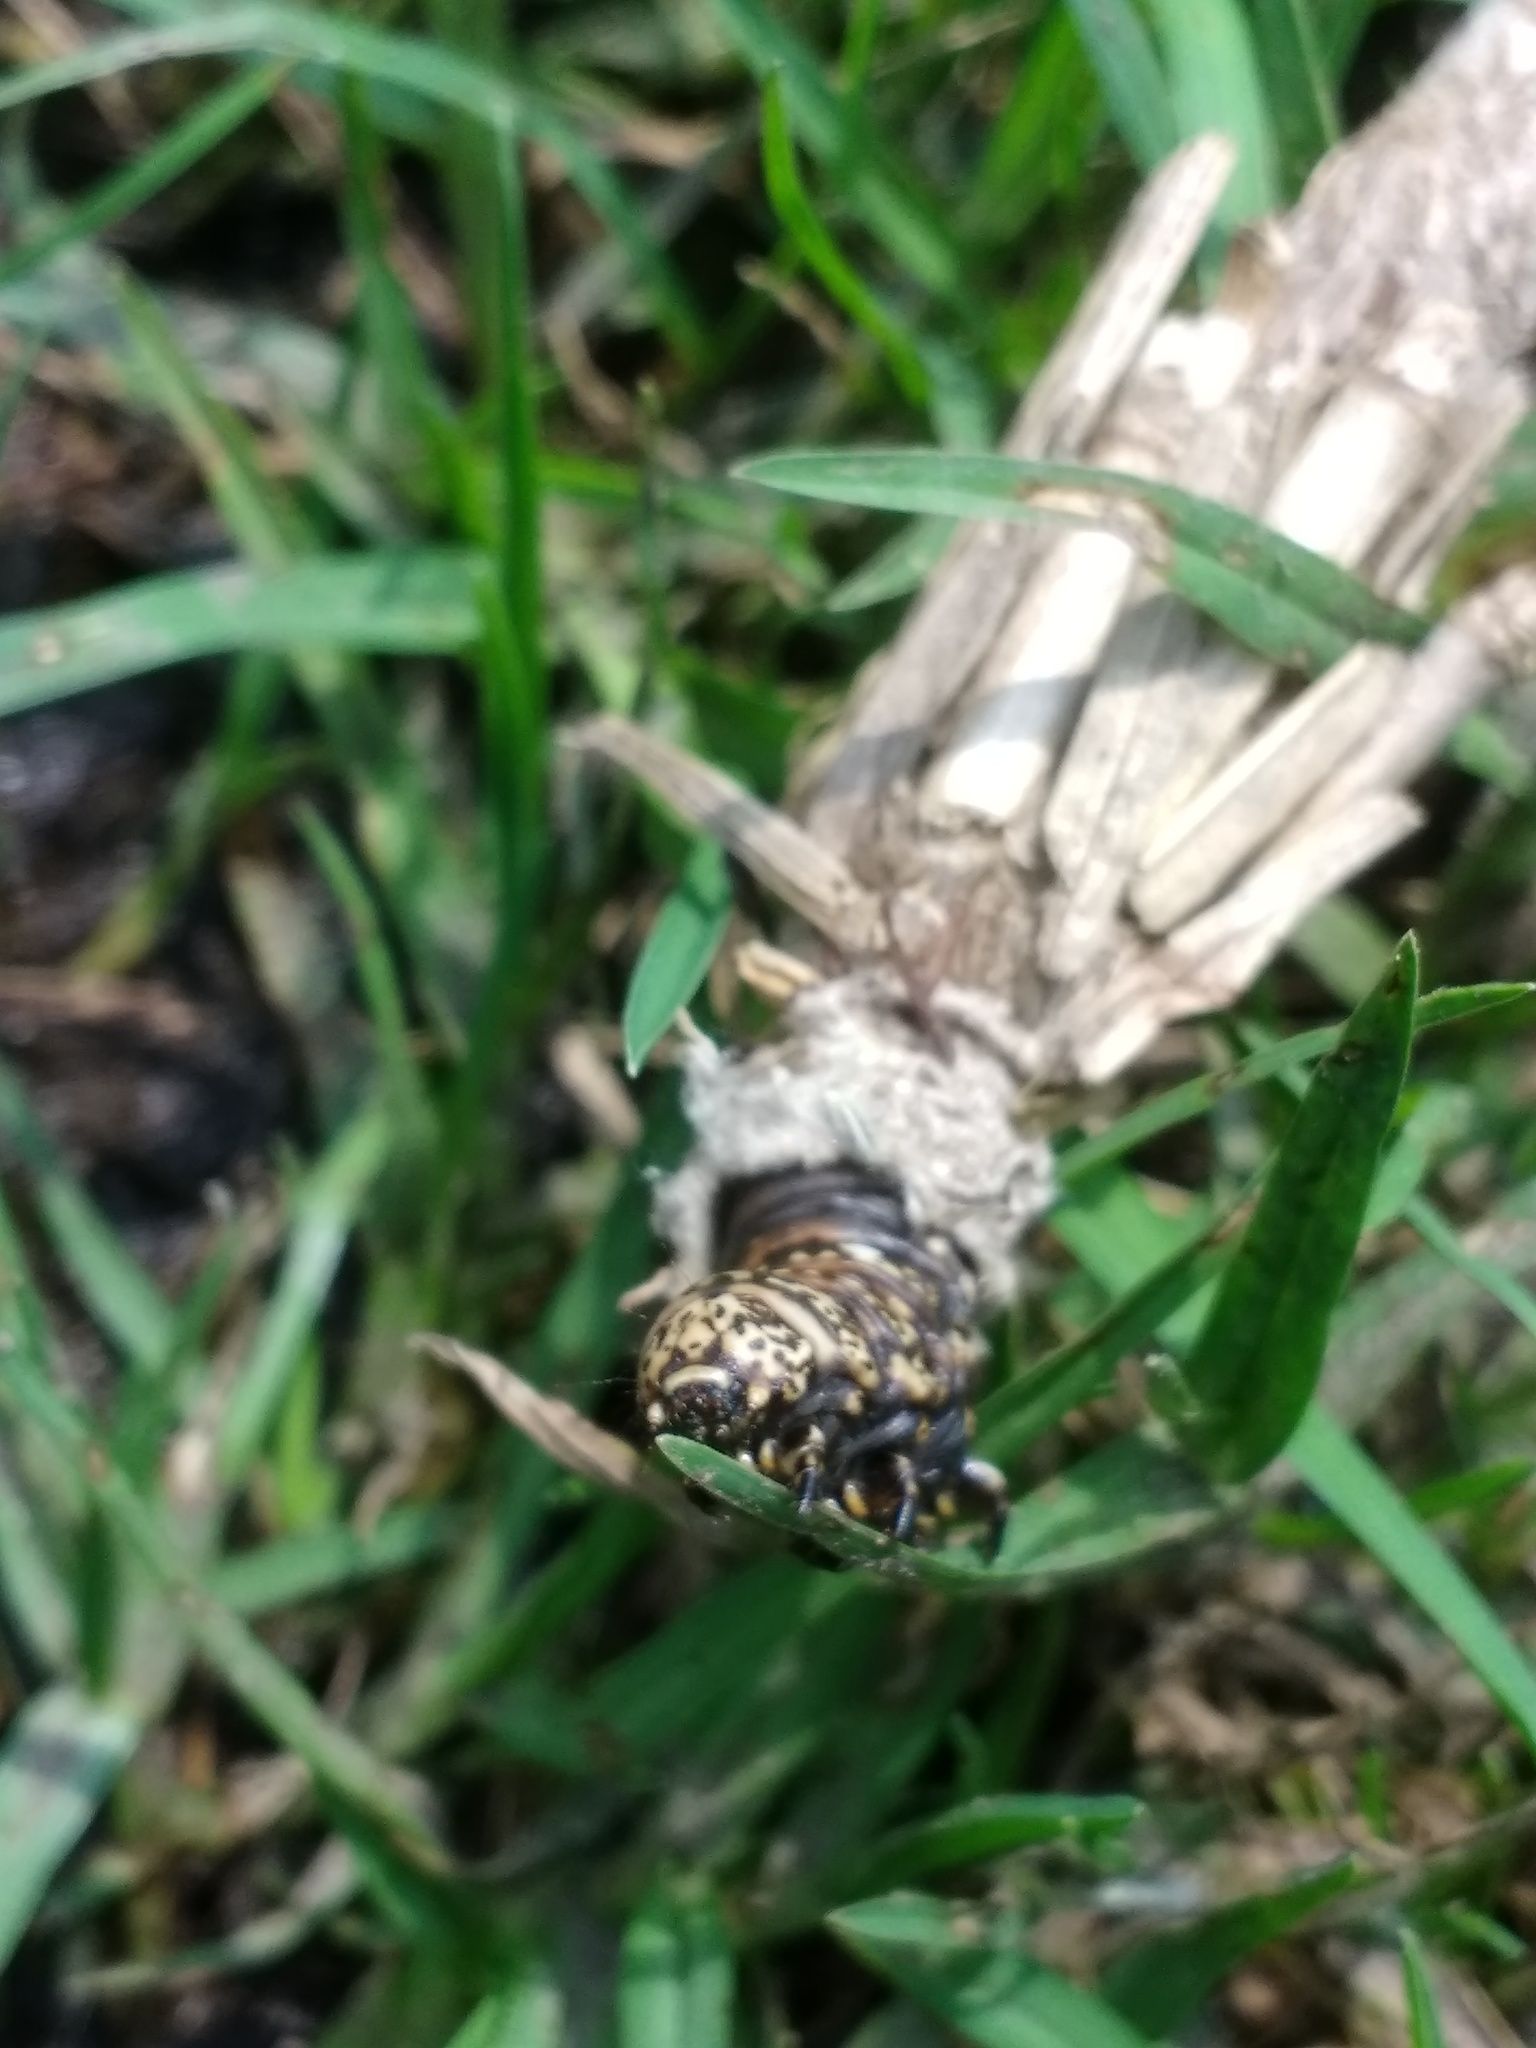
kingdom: Animalia
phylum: Arthropoda
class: Insecta
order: Lepidoptera
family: Psychidae
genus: Oiketicus
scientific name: Oiketicus townsendi
